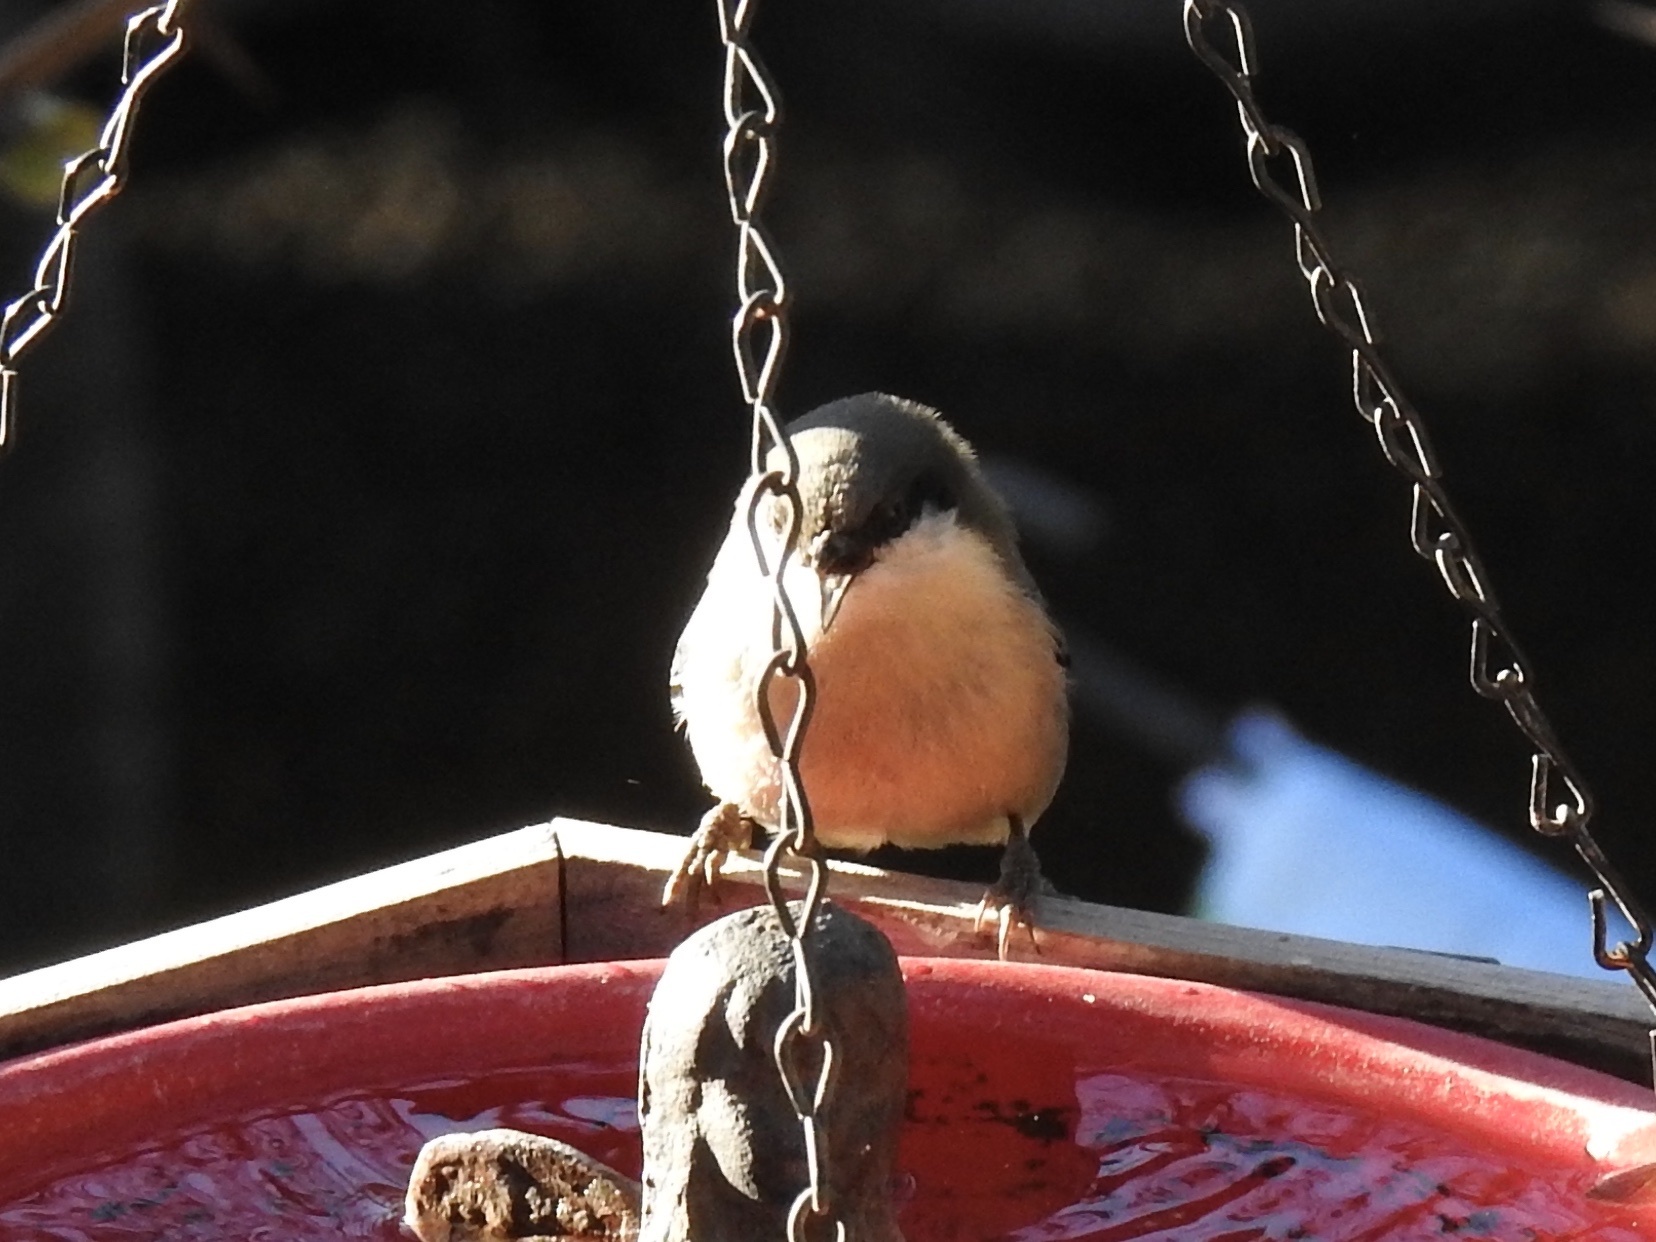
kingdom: Animalia
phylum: Chordata
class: Aves
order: Passeriformes
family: Sittidae
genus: Sitta
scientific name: Sitta pygmaea
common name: Pygmy nuthatch
